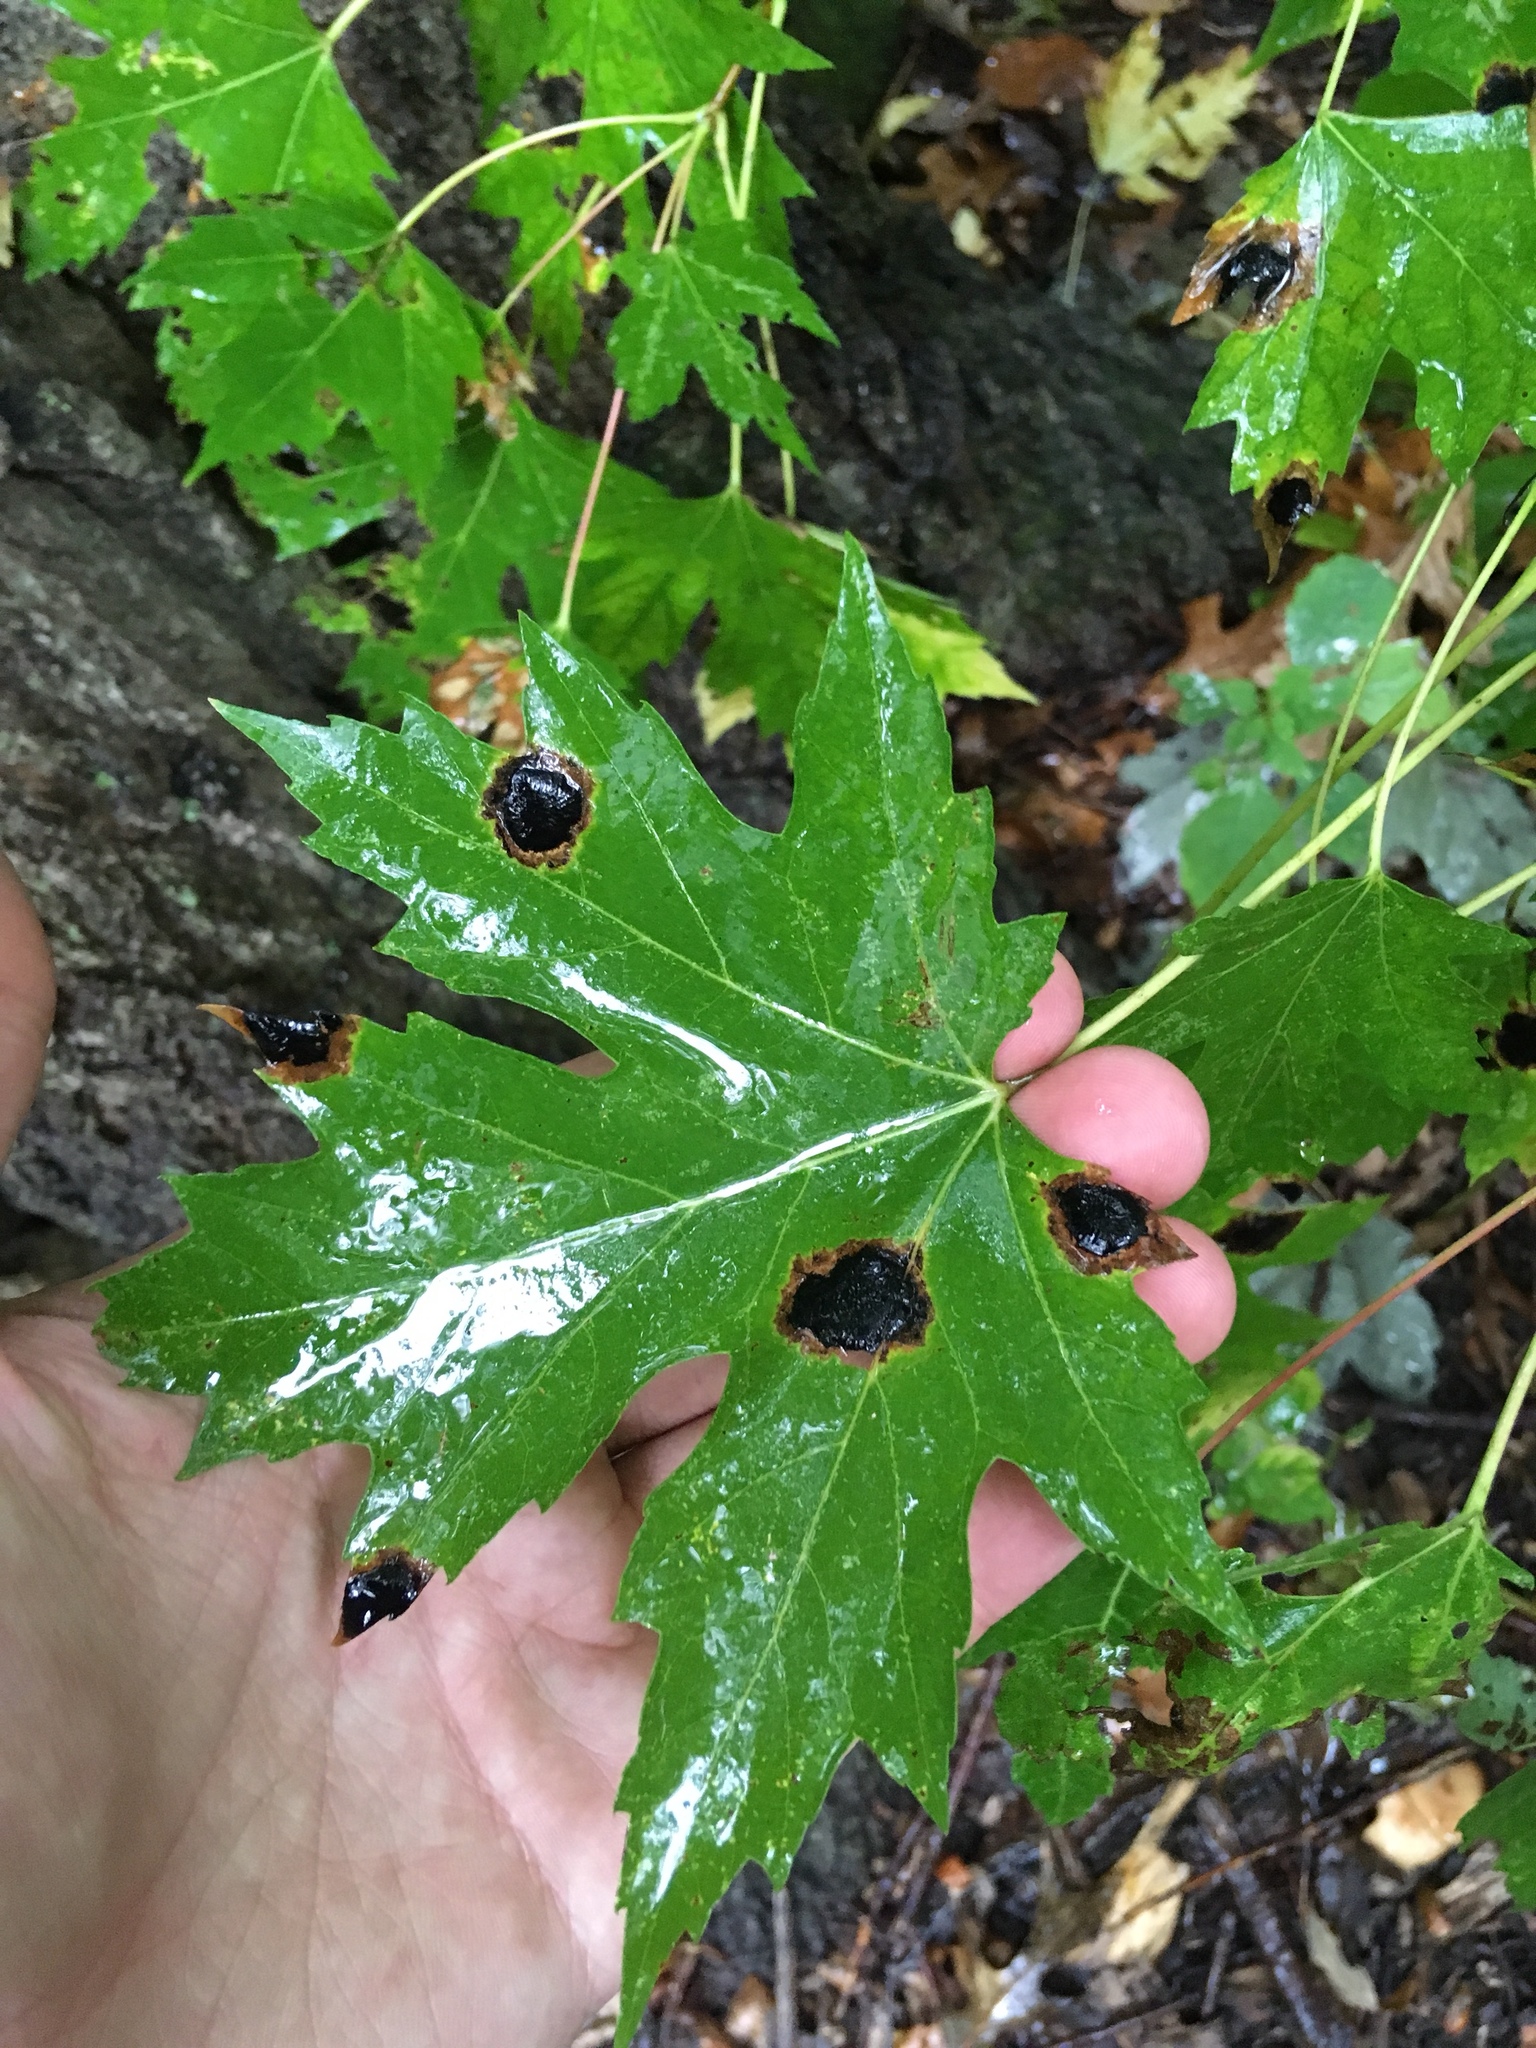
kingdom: Plantae
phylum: Tracheophyta
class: Magnoliopsida
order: Sapindales
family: Sapindaceae
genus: Acer
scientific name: Acer saccharinum
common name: Silver maple
